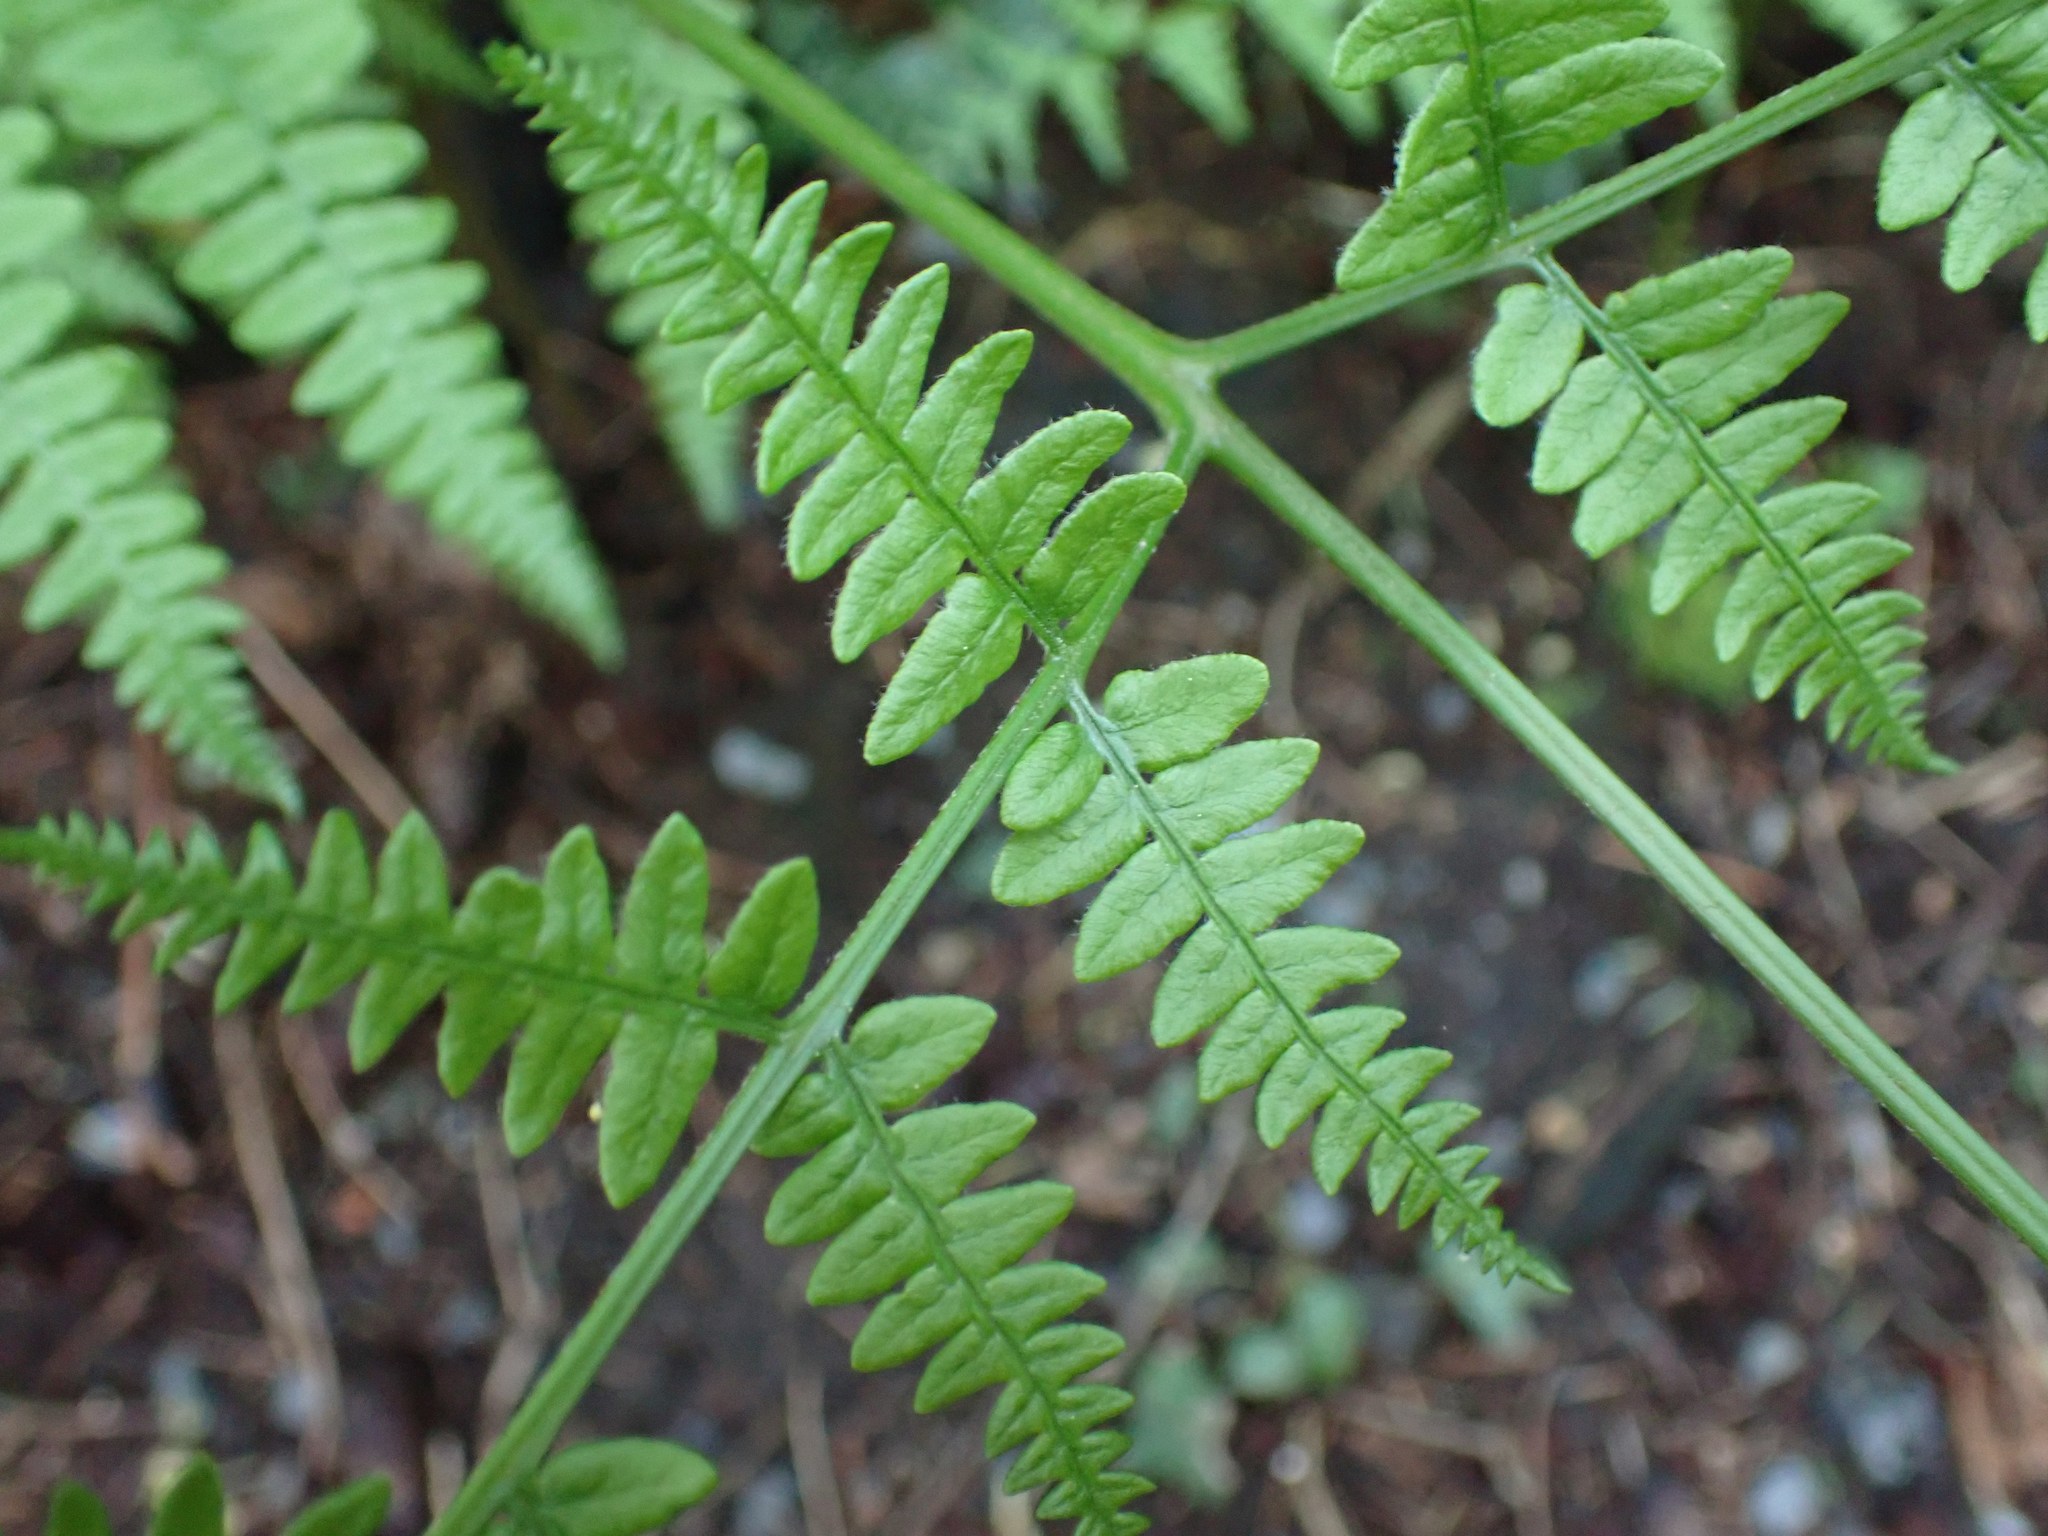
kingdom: Plantae
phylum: Tracheophyta
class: Polypodiopsida
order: Polypodiales
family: Dennstaedtiaceae
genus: Pteridium
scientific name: Pteridium aquilinum
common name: Bracken
